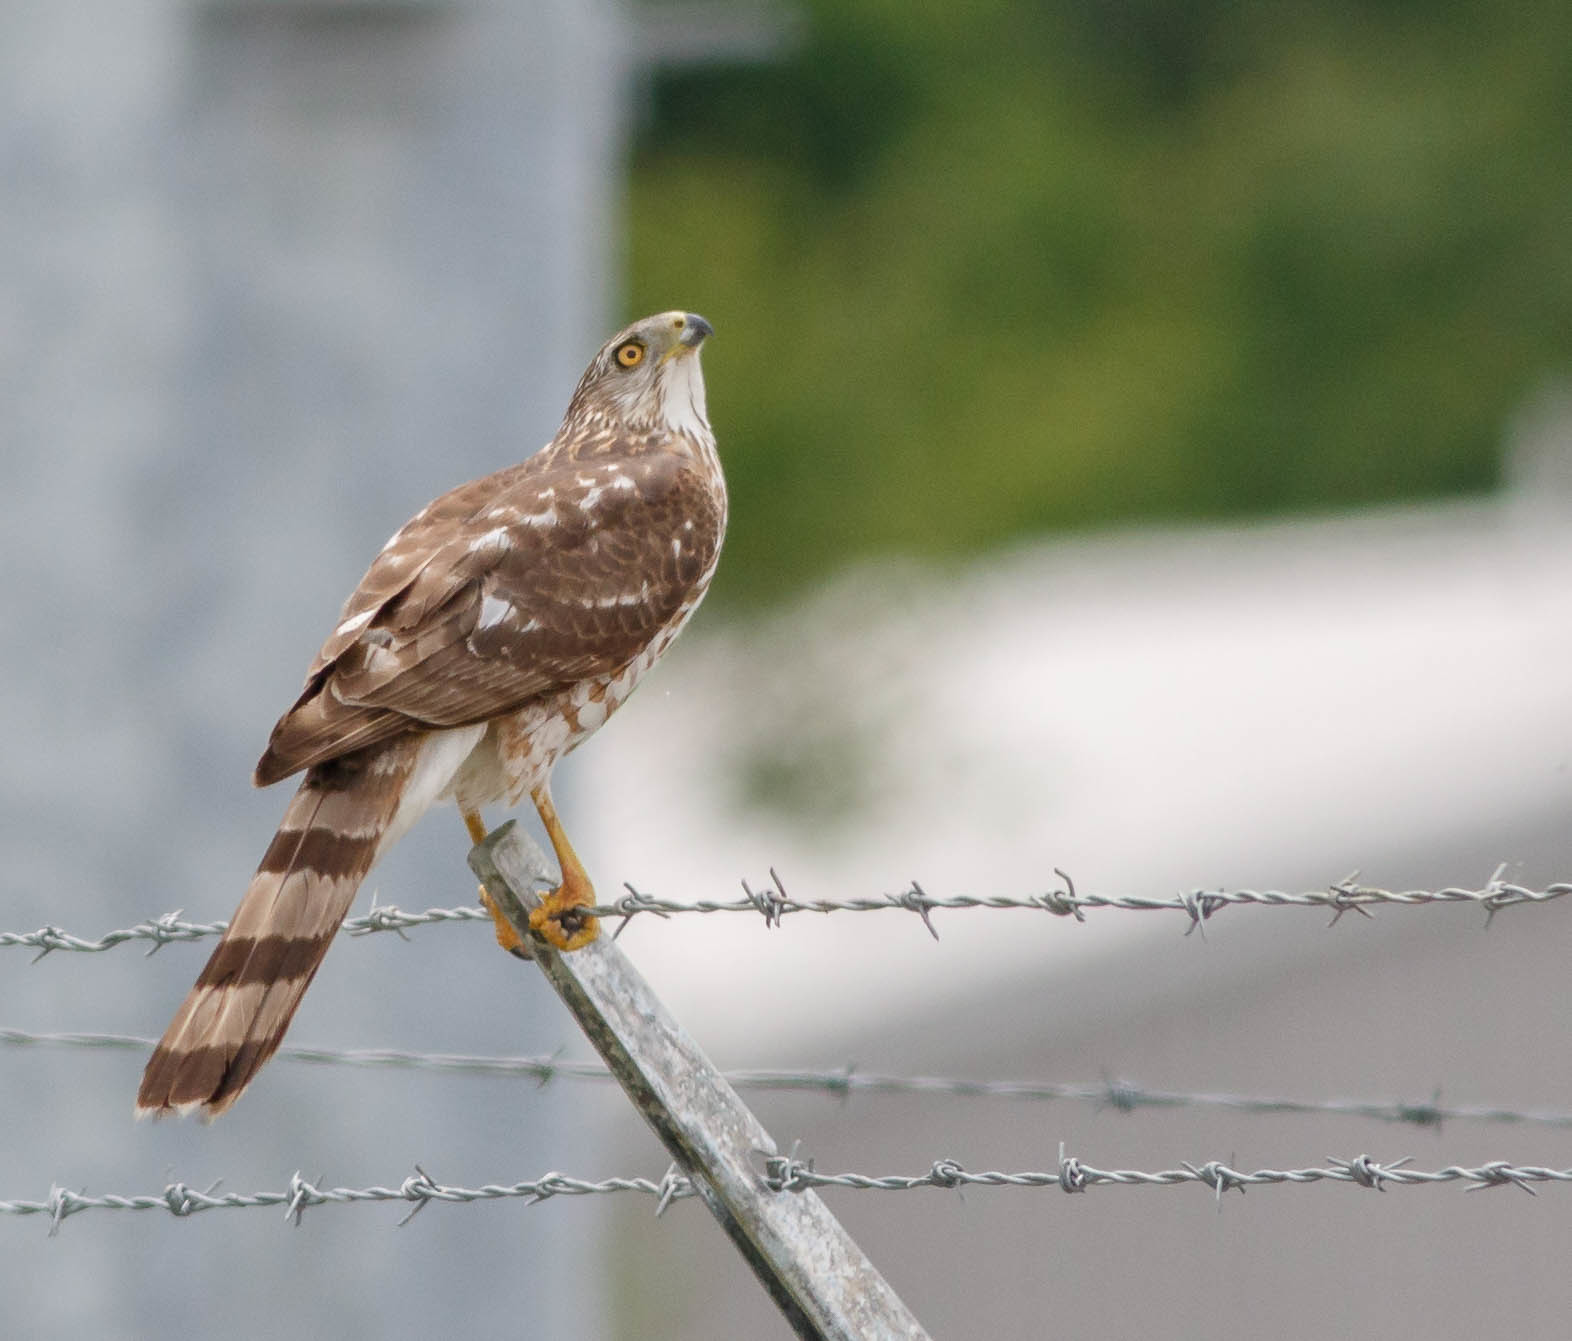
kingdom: Animalia
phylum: Chordata
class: Aves
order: Accipitriformes
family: Accipitridae
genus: Accipiter
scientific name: Accipiter cooperii
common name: Cooper's hawk
